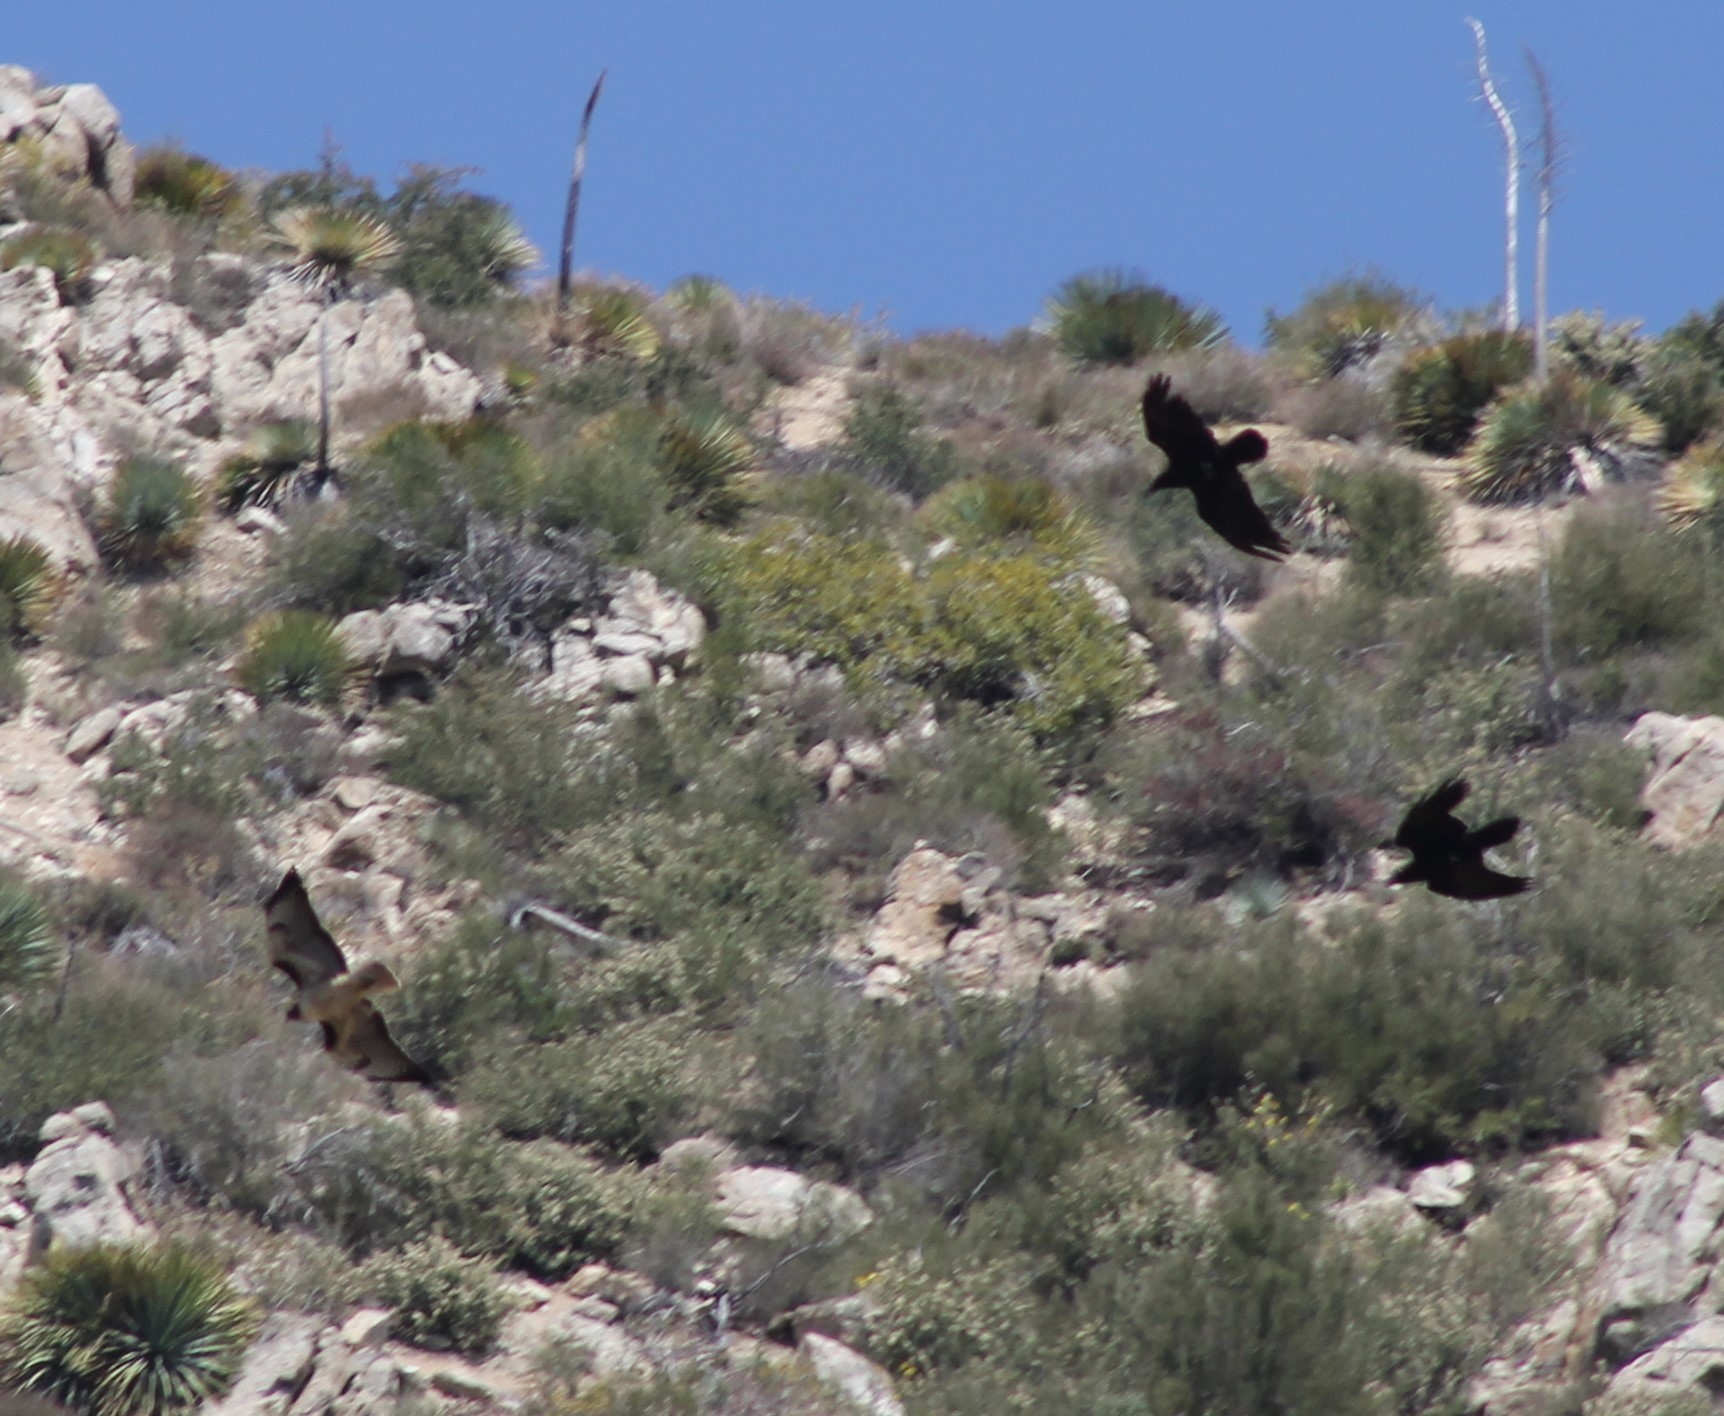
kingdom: Animalia
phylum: Chordata
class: Aves
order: Passeriformes
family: Corvidae
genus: Corvus
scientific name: Corvus corax
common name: Common raven
